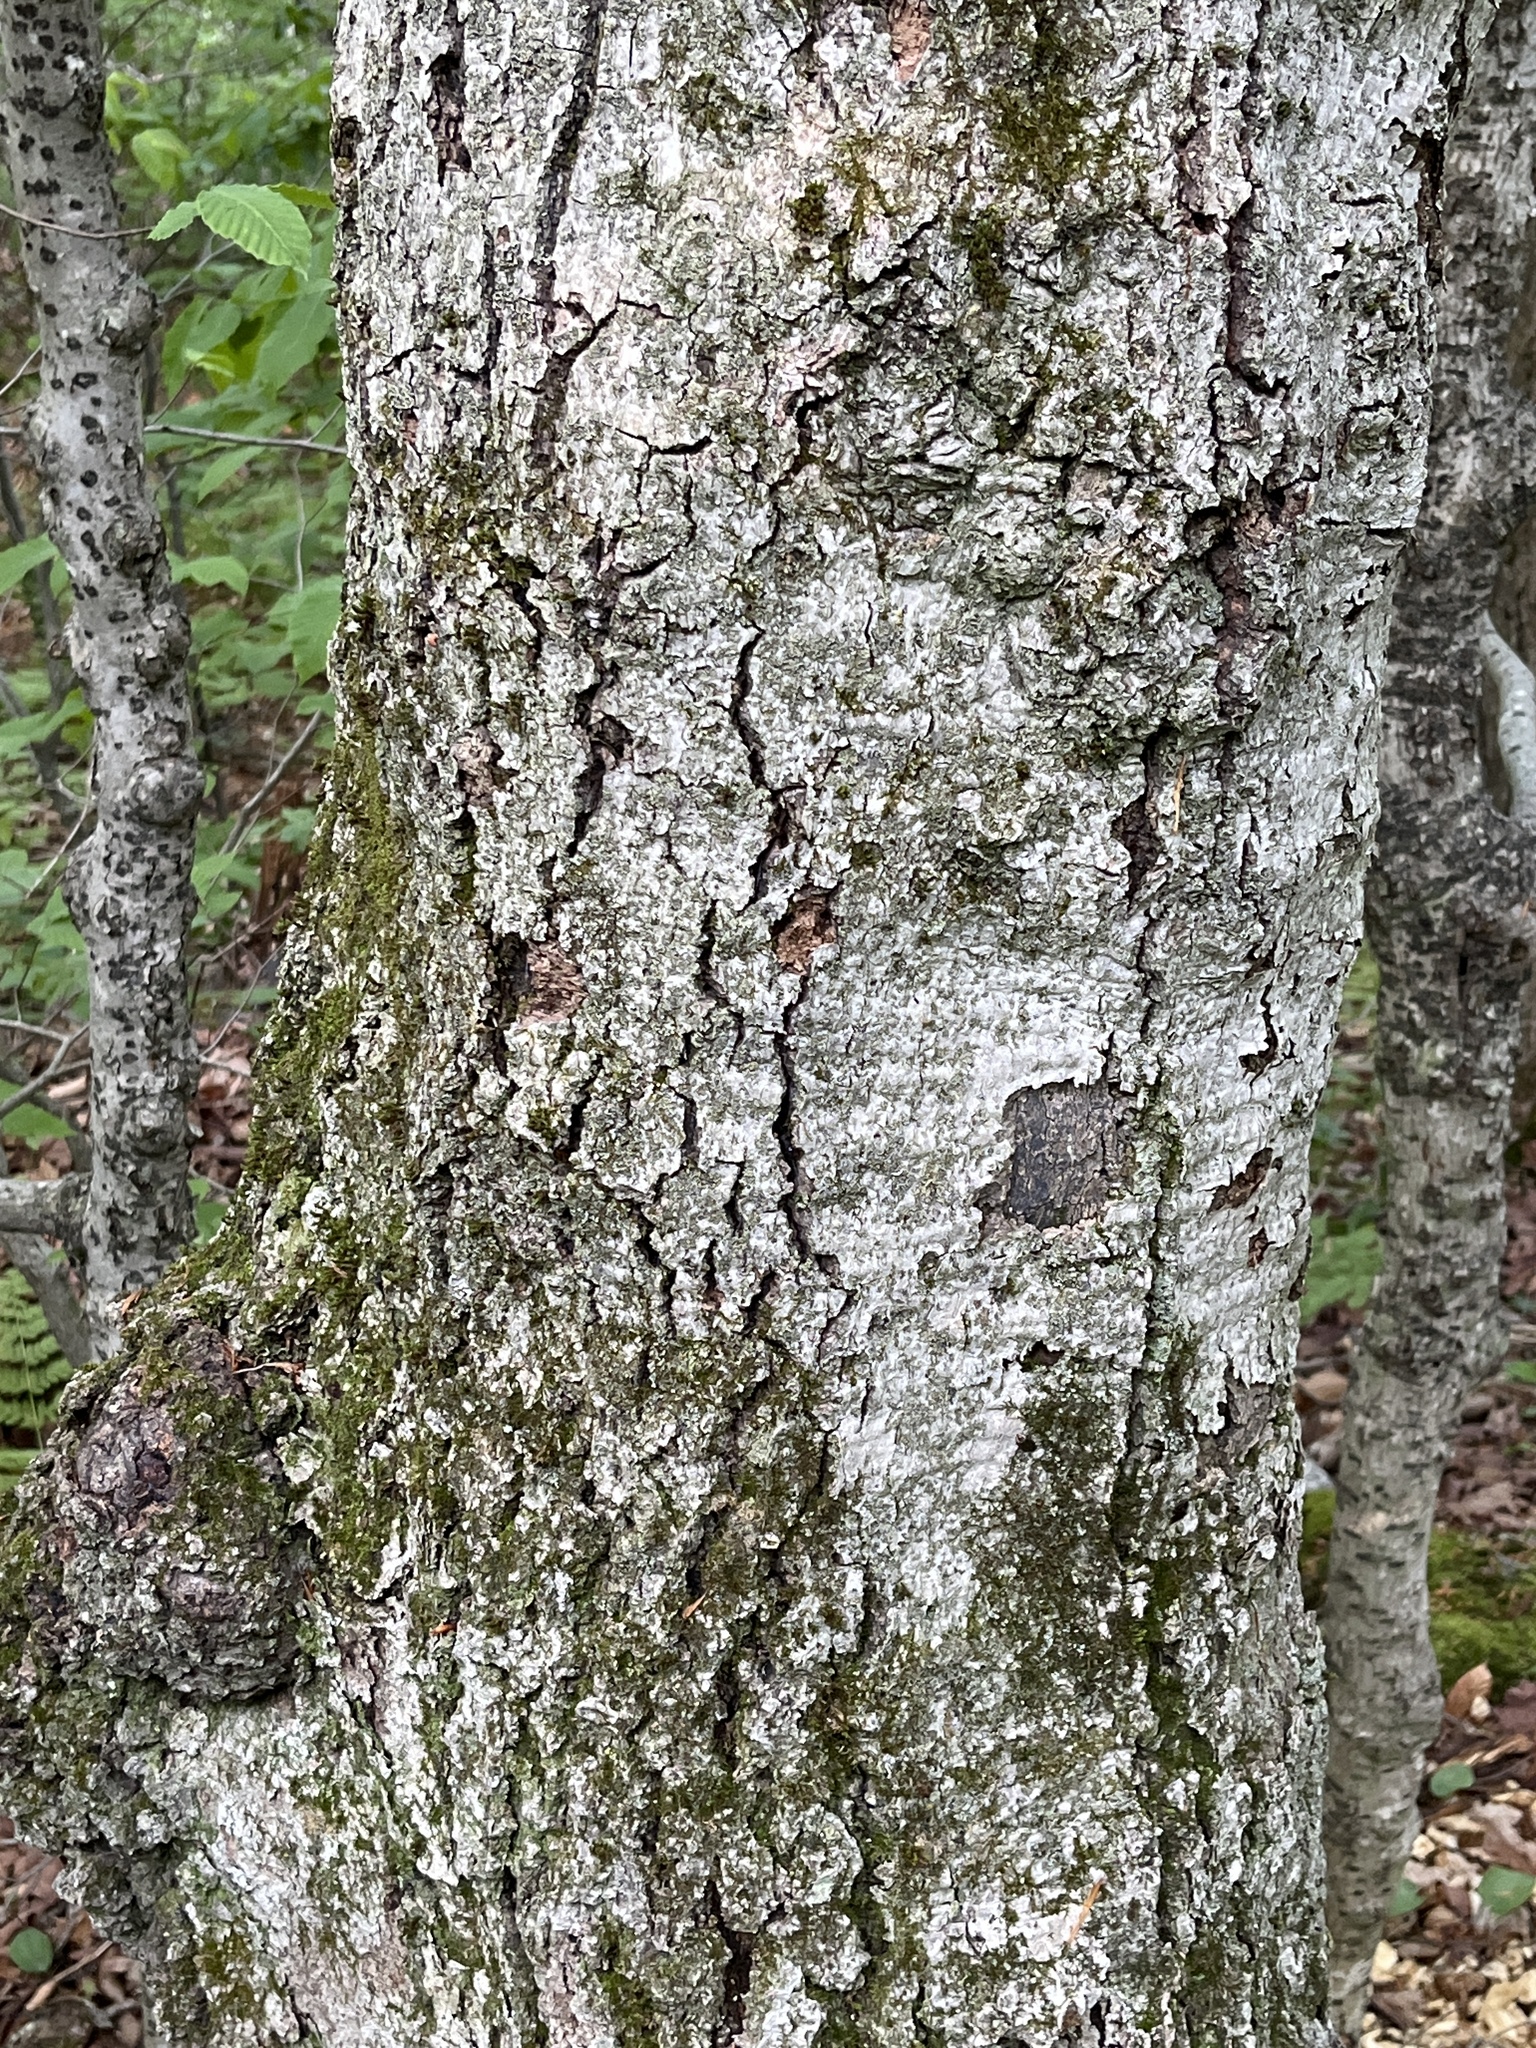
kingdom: Plantae
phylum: Tracheophyta
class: Magnoliopsida
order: Fagales
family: Fagaceae
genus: Fagus
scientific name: Fagus grandifolia
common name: American beech
